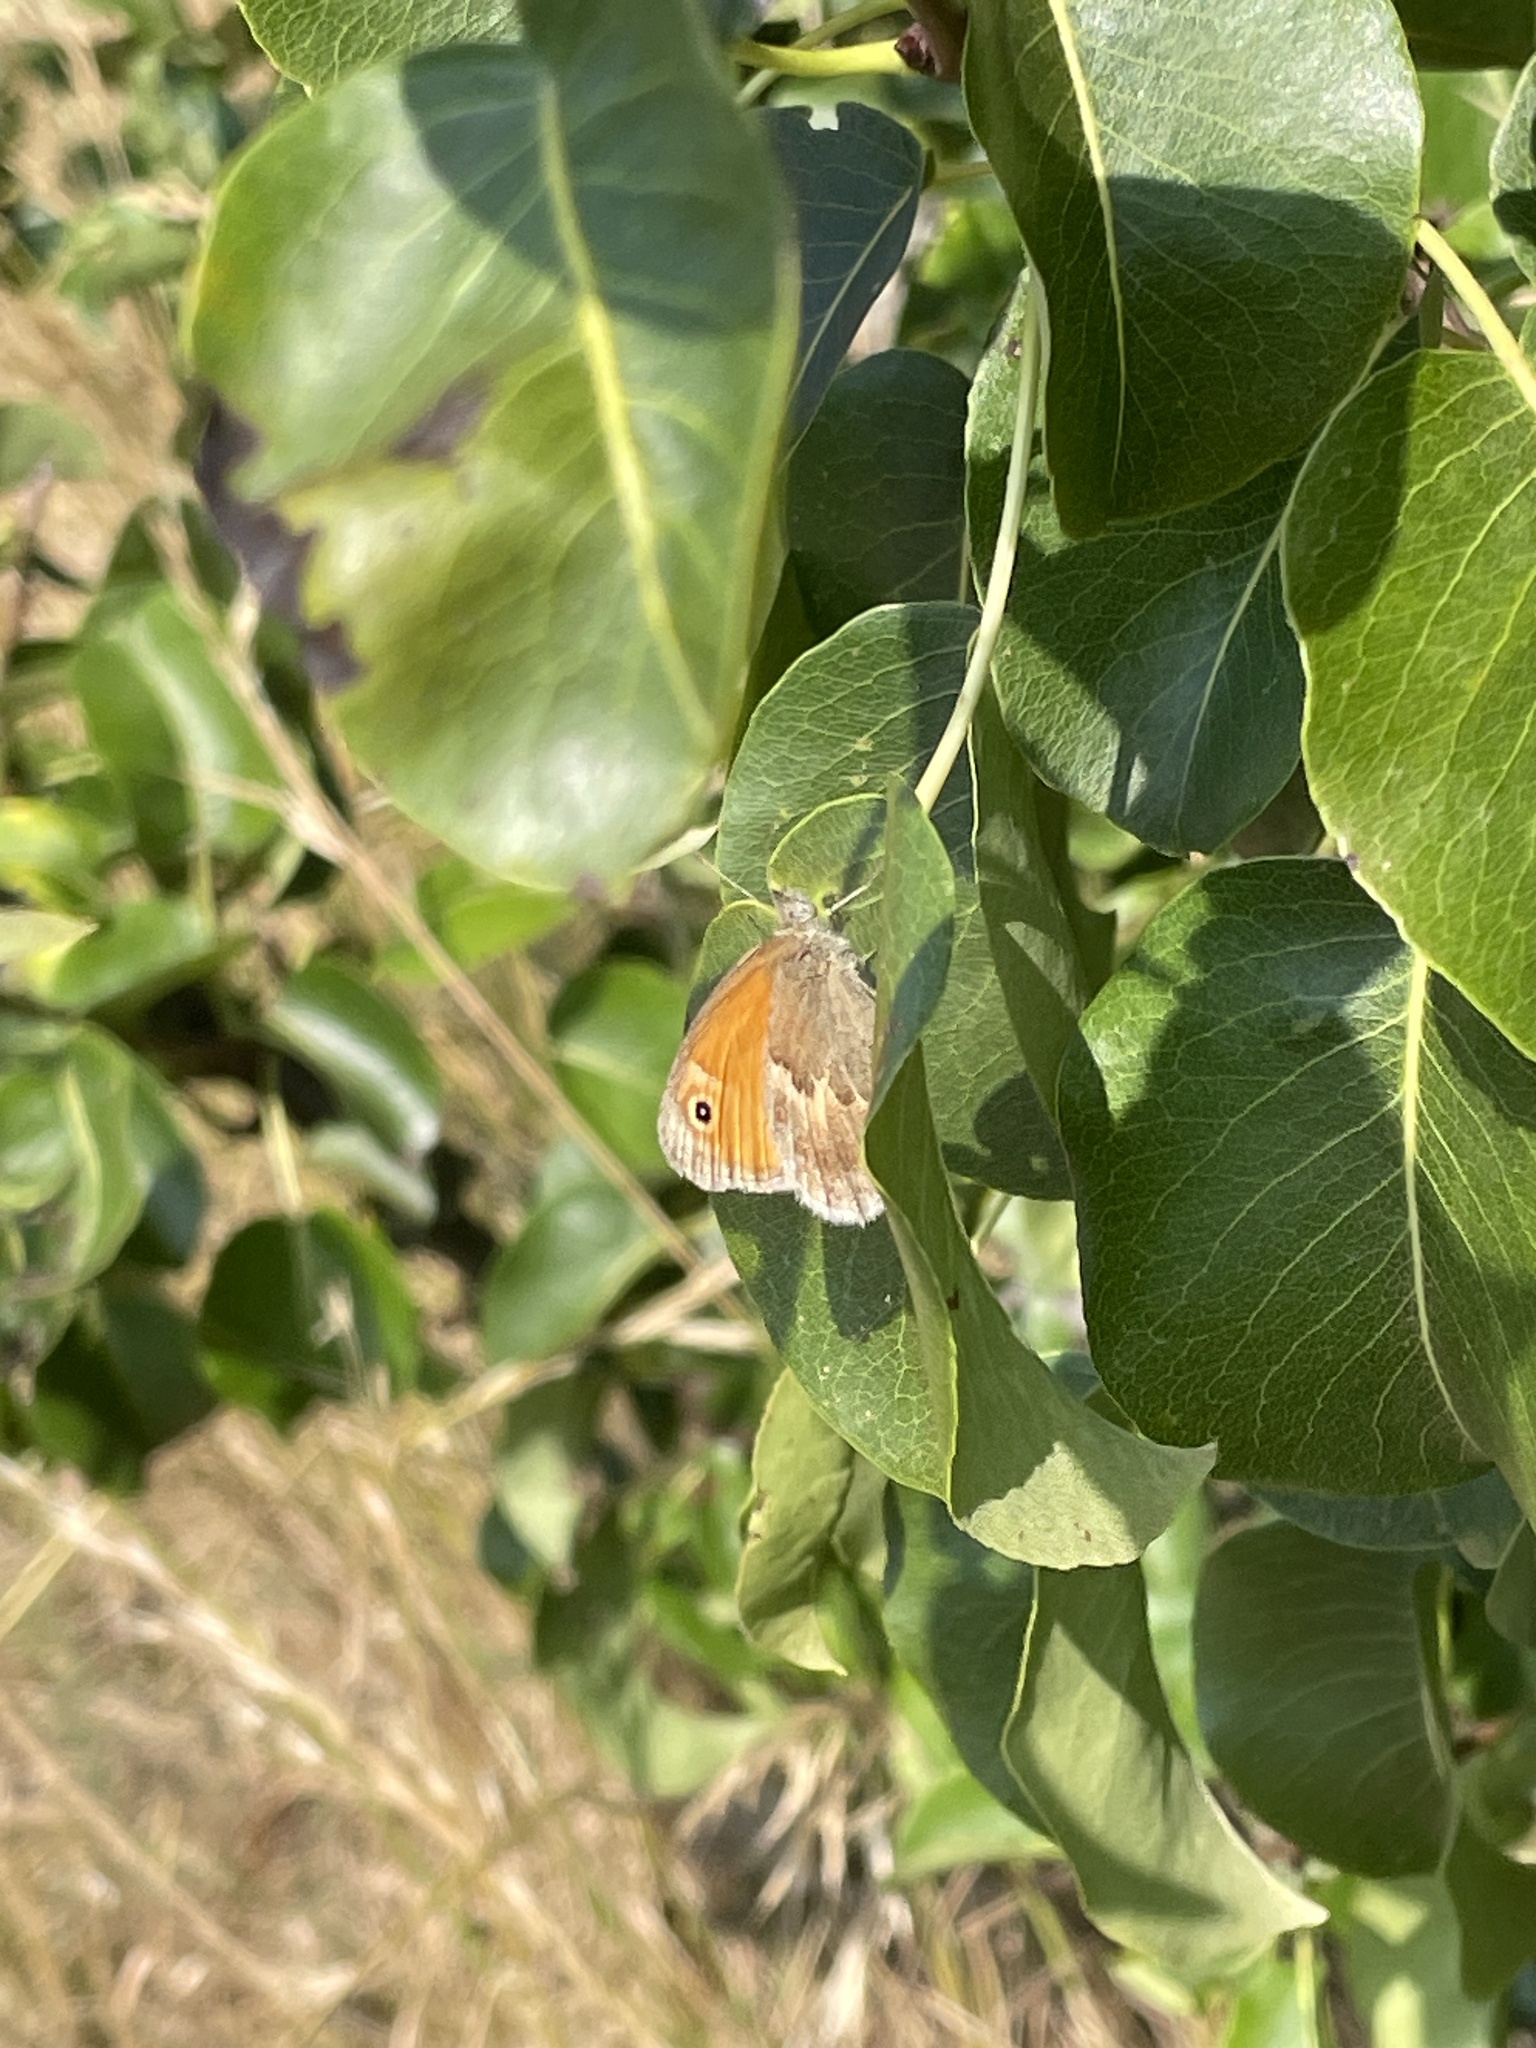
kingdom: Animalia
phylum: Arthropoda
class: Insecta
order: Lepidoptera
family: Nymphalidae
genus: Coenonympha
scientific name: Coenonympha pamphilus
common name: Small heath
